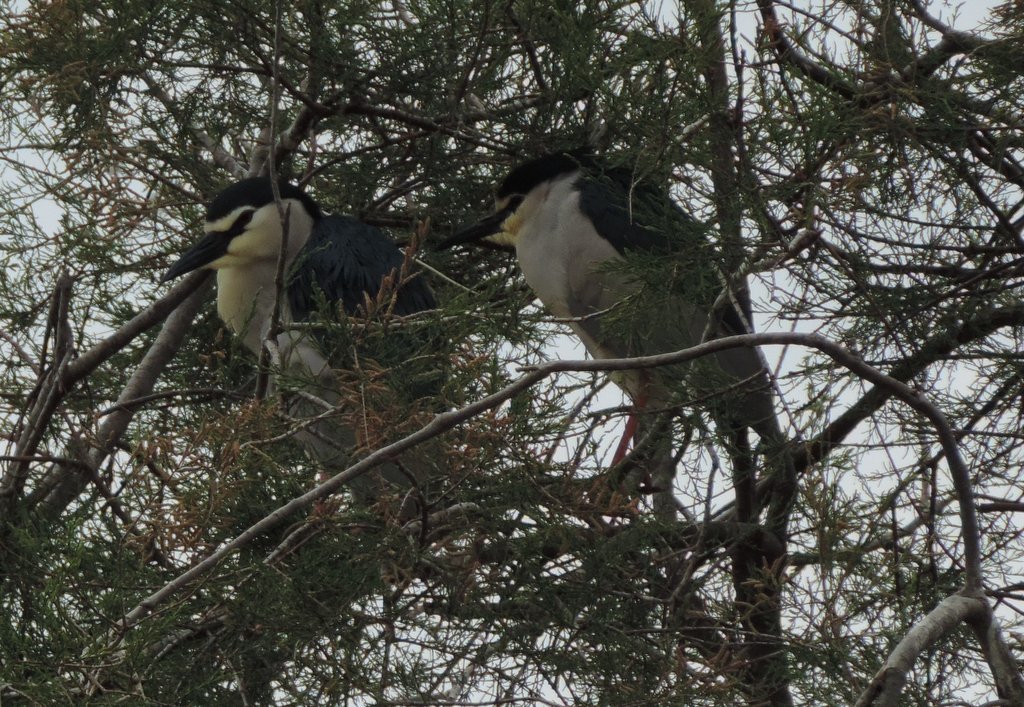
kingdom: Animalia
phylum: Chordata
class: Aves
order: Pelecaniformes
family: Ardeidae
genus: Nycticorax
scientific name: Nycticorax nycticorax
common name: Black-crowned night heron
